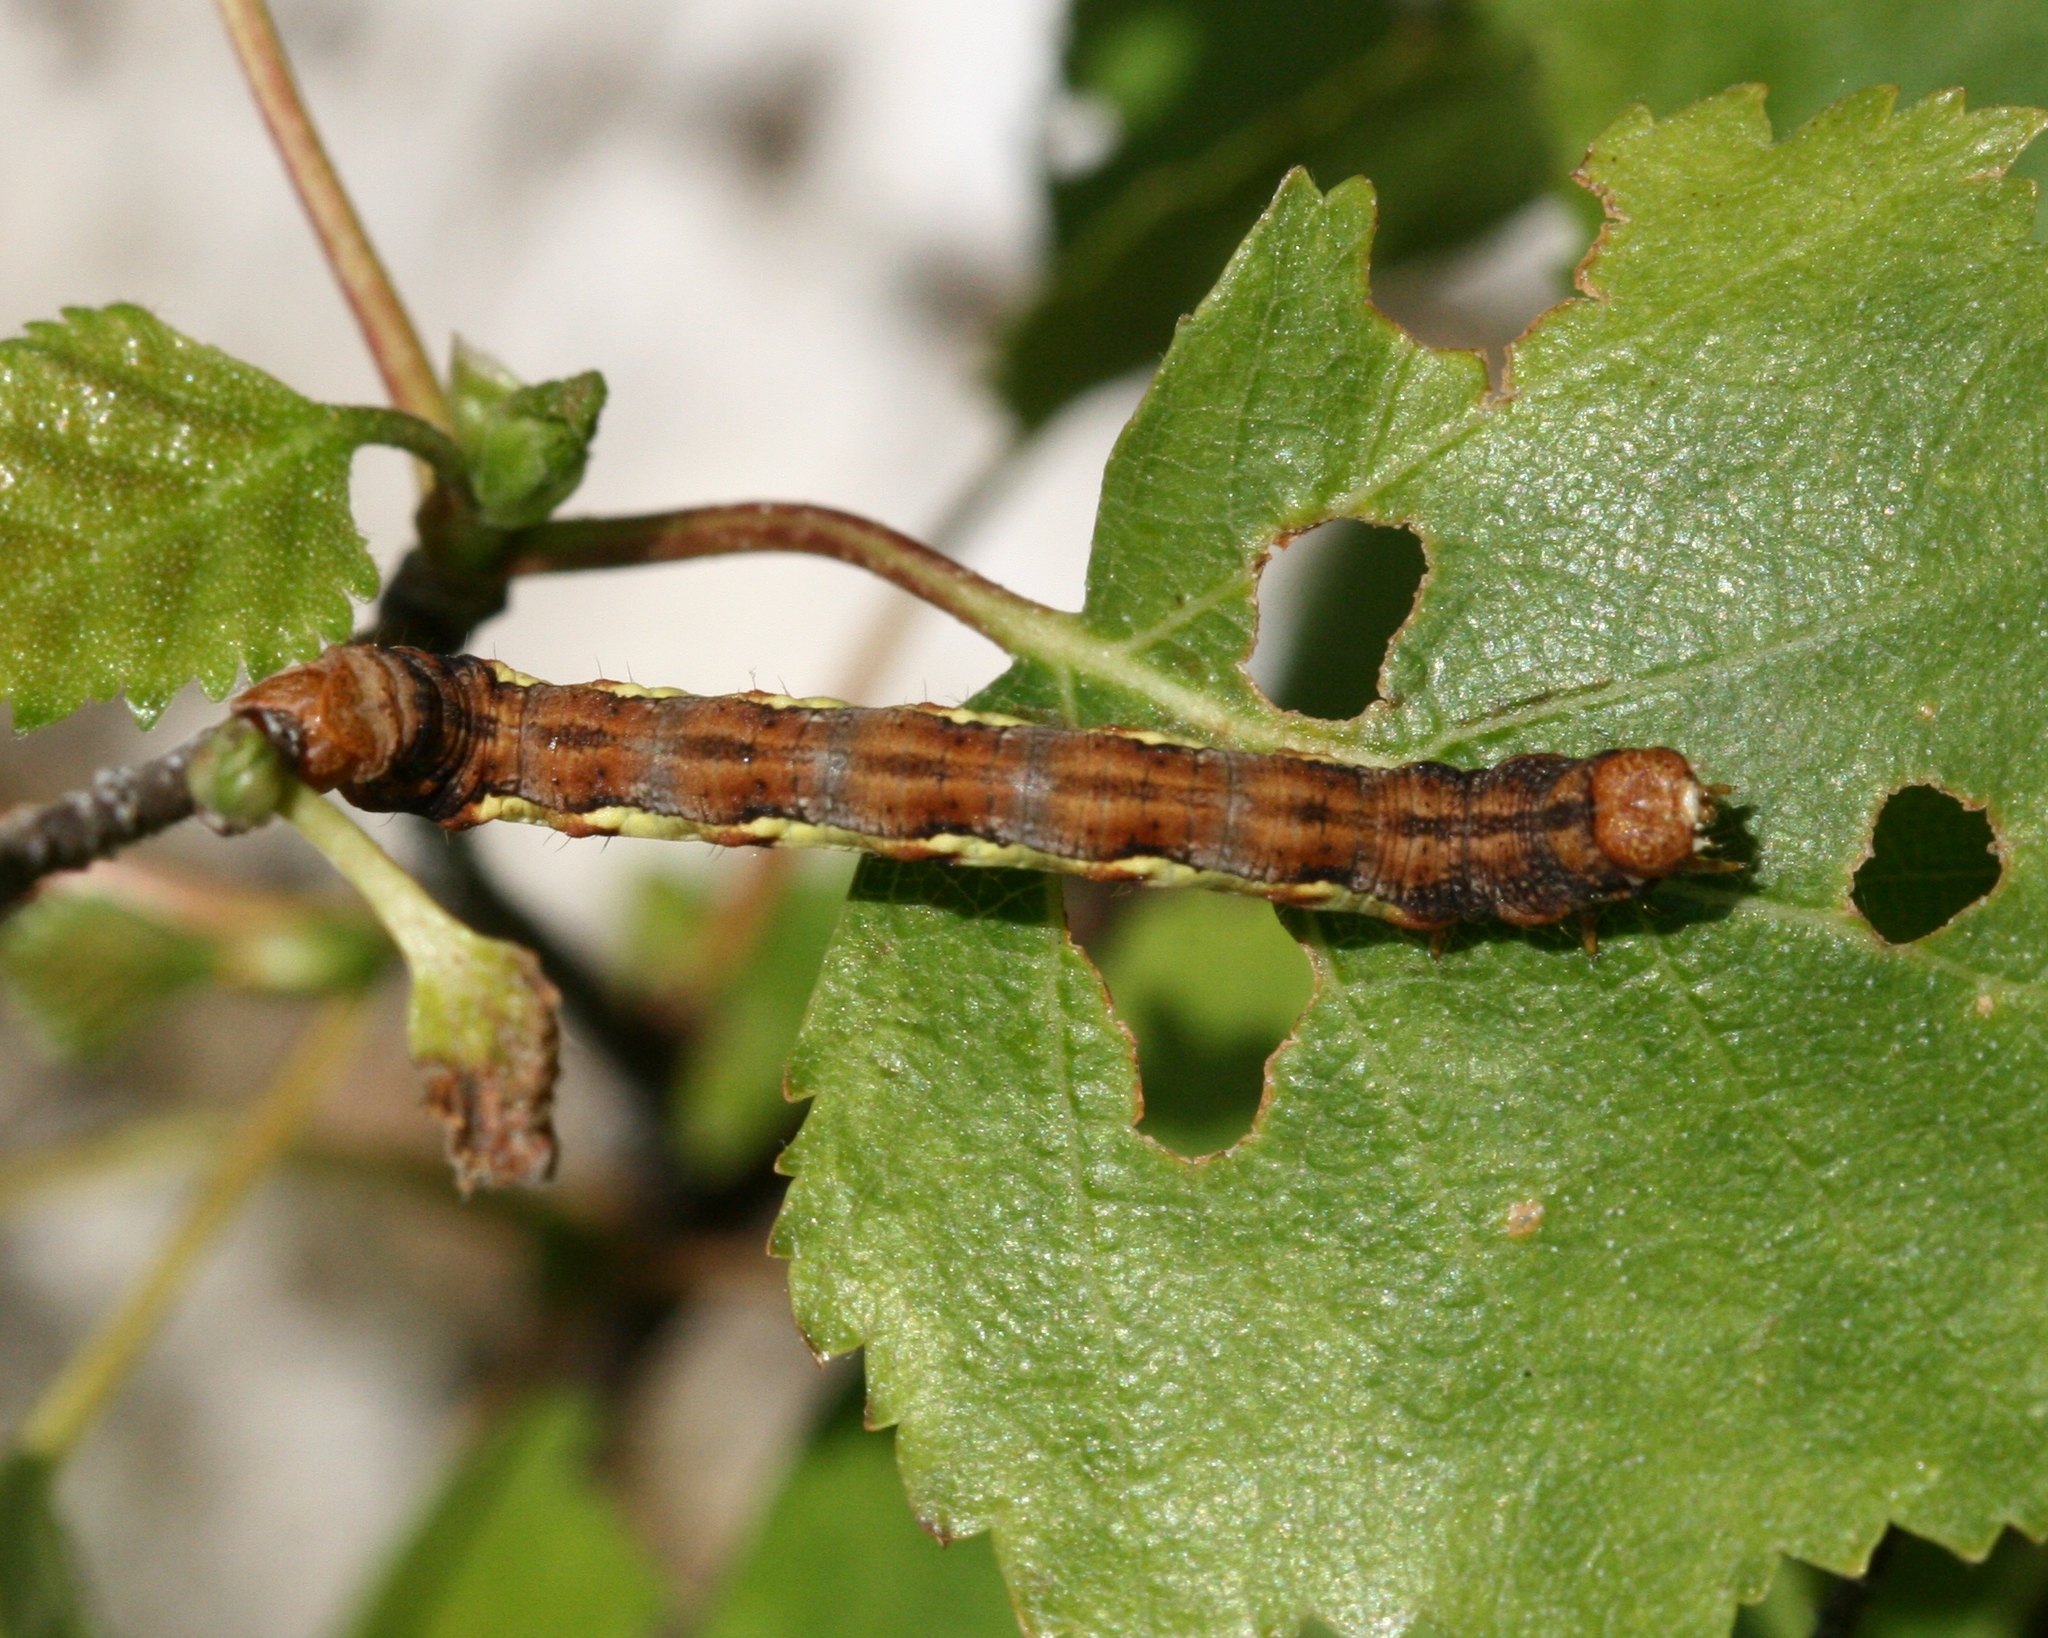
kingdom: Animalia
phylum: Arthropoda
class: Insecta
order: Lepidoptera
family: Geometridae
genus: Erannis
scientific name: Erannis defoliaria
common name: Mottled umber
